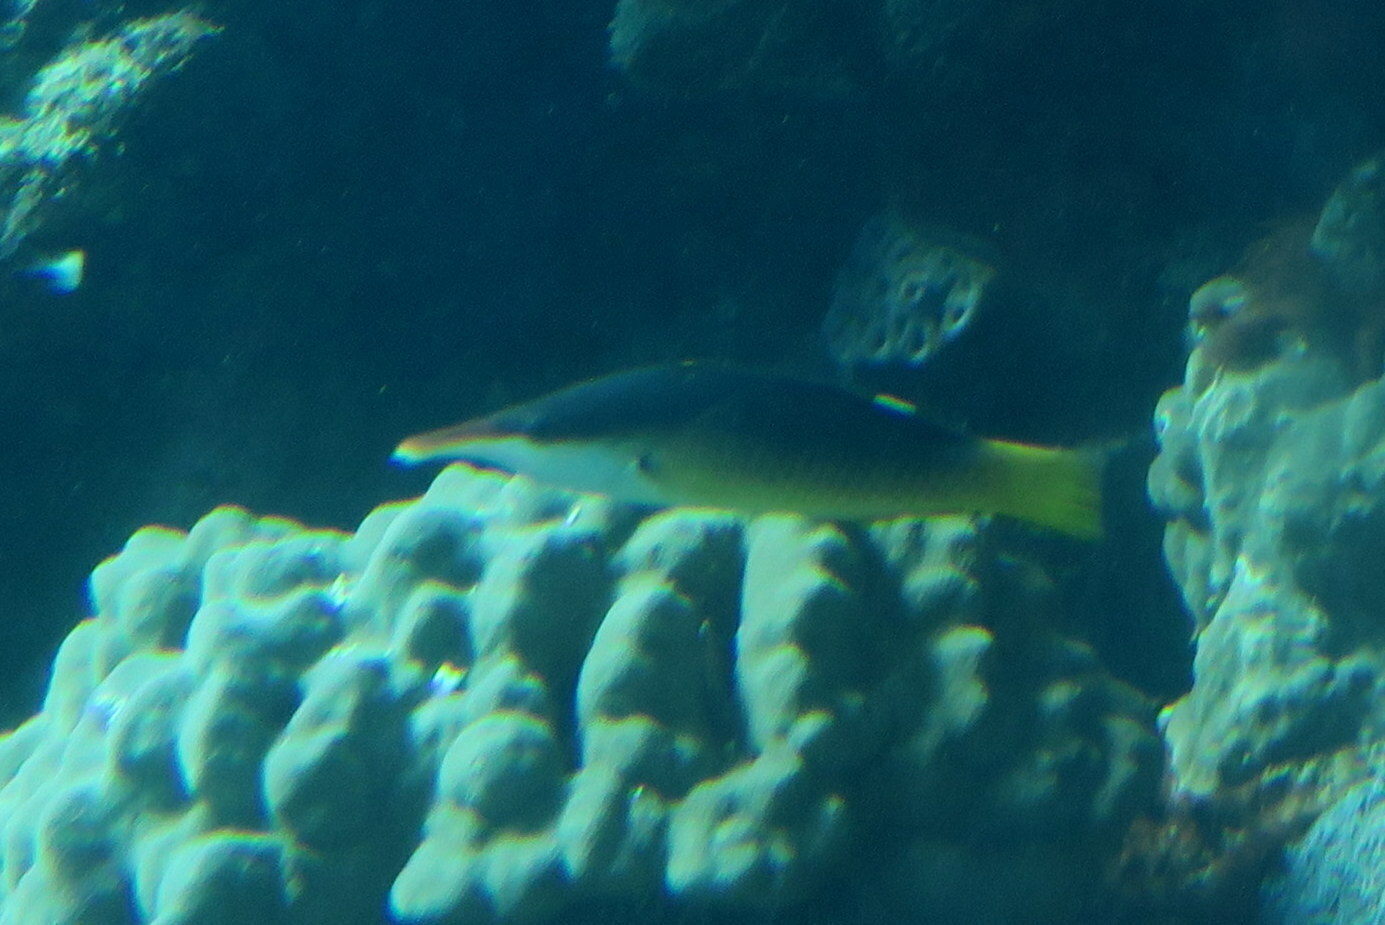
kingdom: Animalia
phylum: Chordata
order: Perciformes
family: Labridae
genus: Gomphosus
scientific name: Gomphosus klunzingeri
